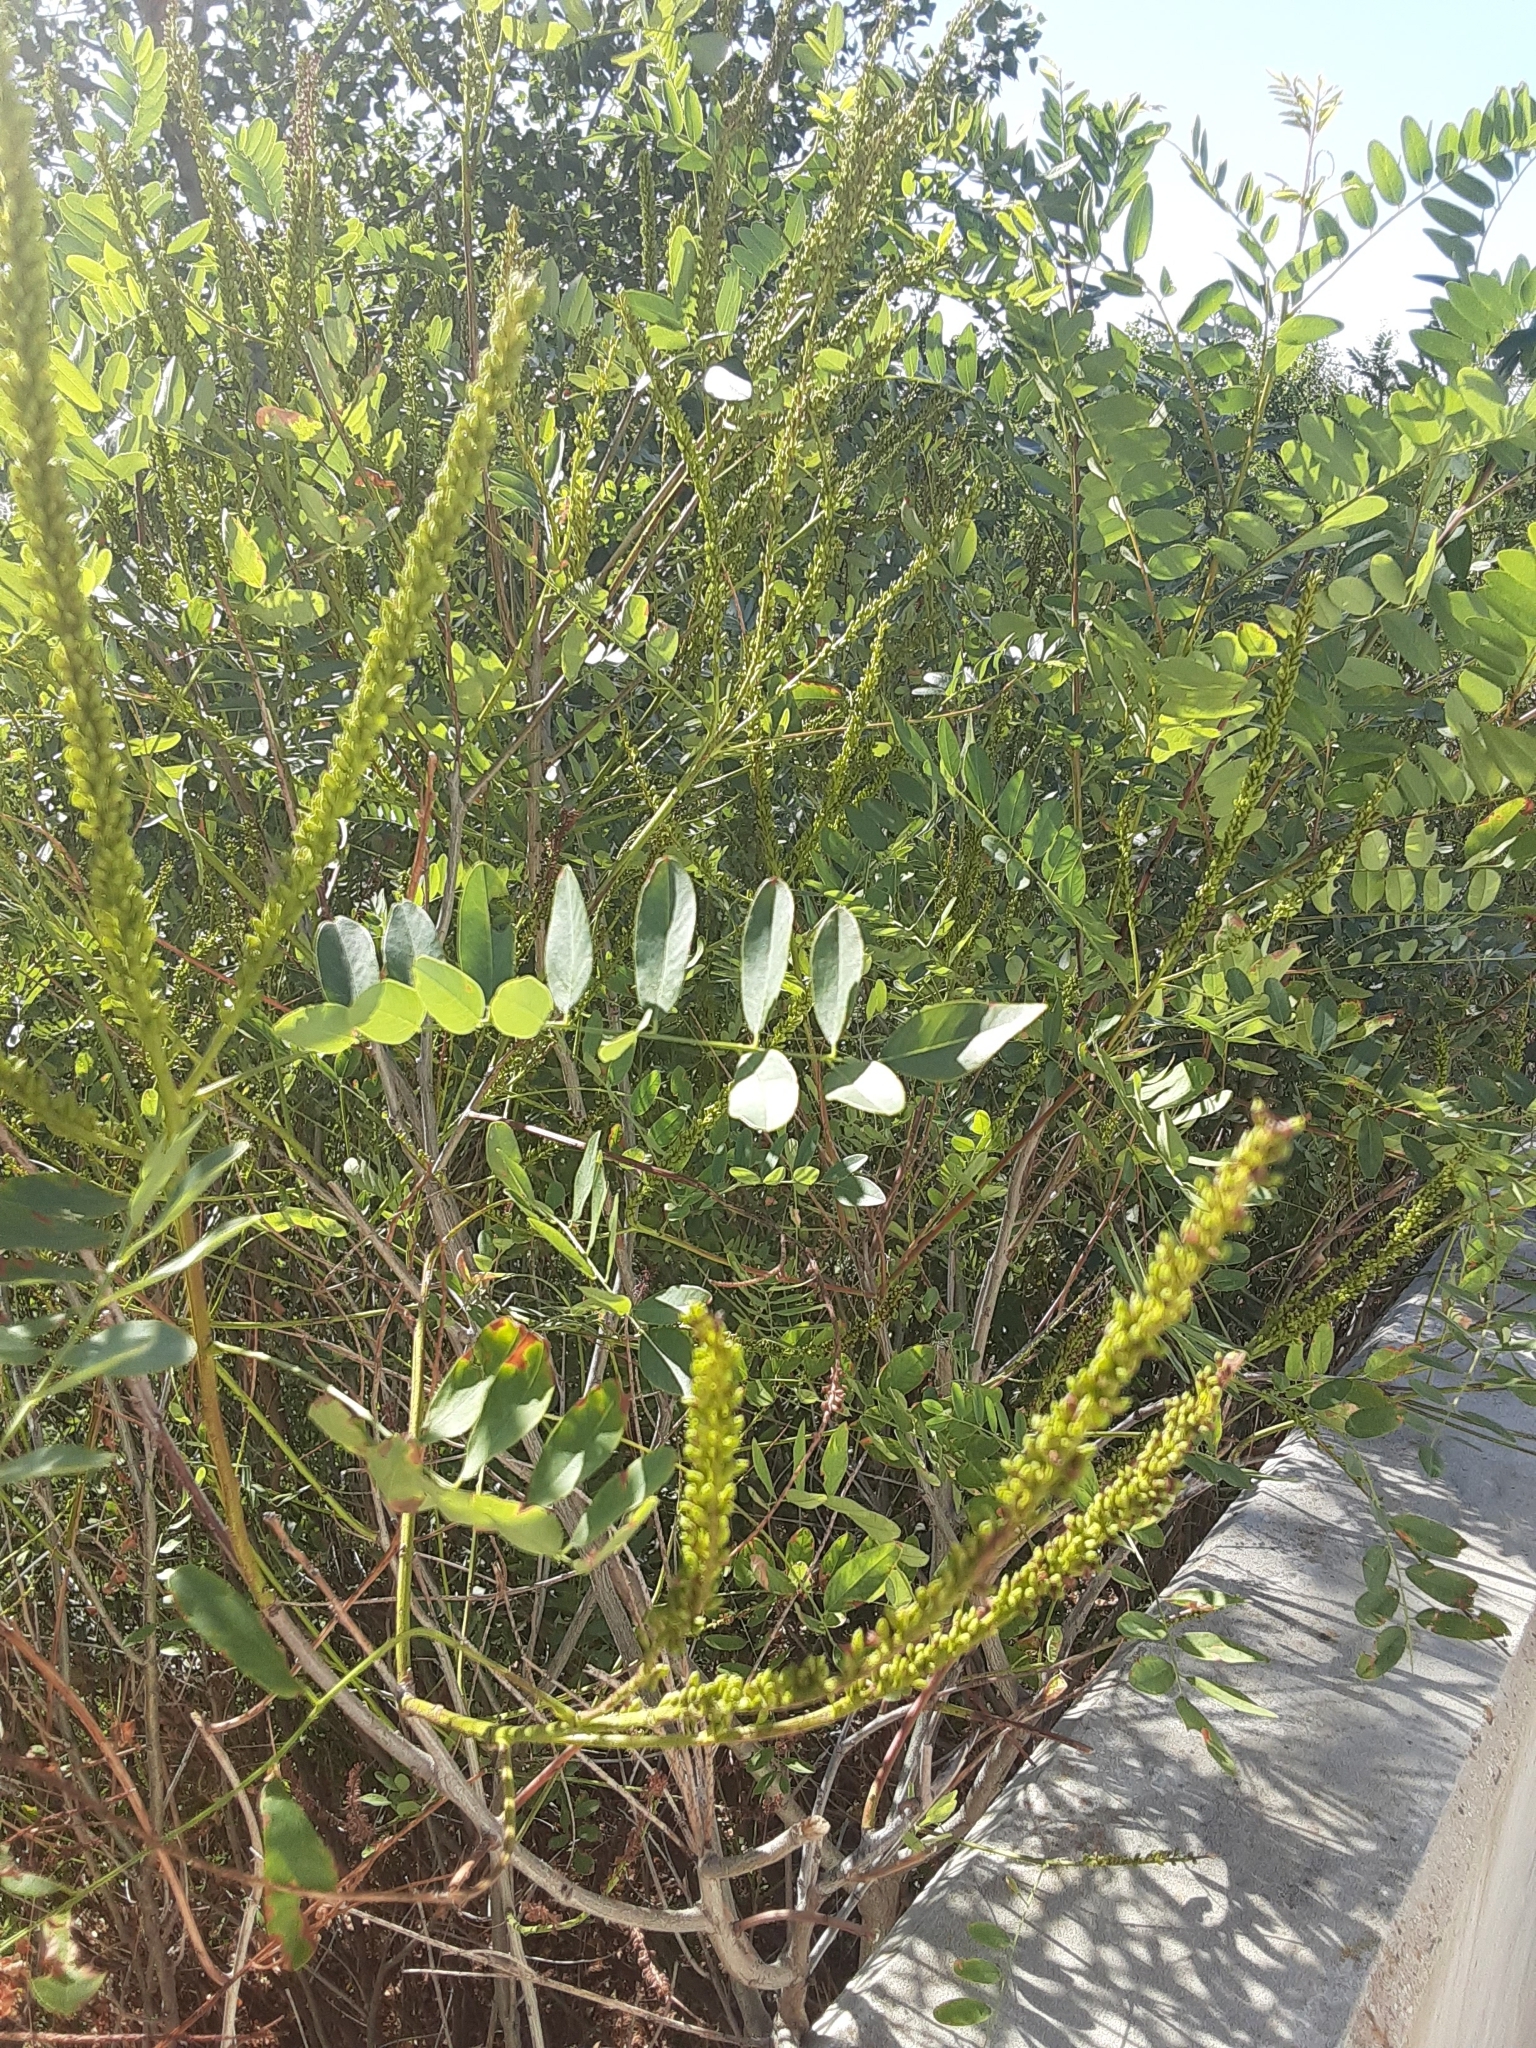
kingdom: Plantae
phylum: Tracheophyta
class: Magnoliopsida
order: Fabales
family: Fabaceae
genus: Amorpha
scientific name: Amorpha fruticosa
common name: False indigo
